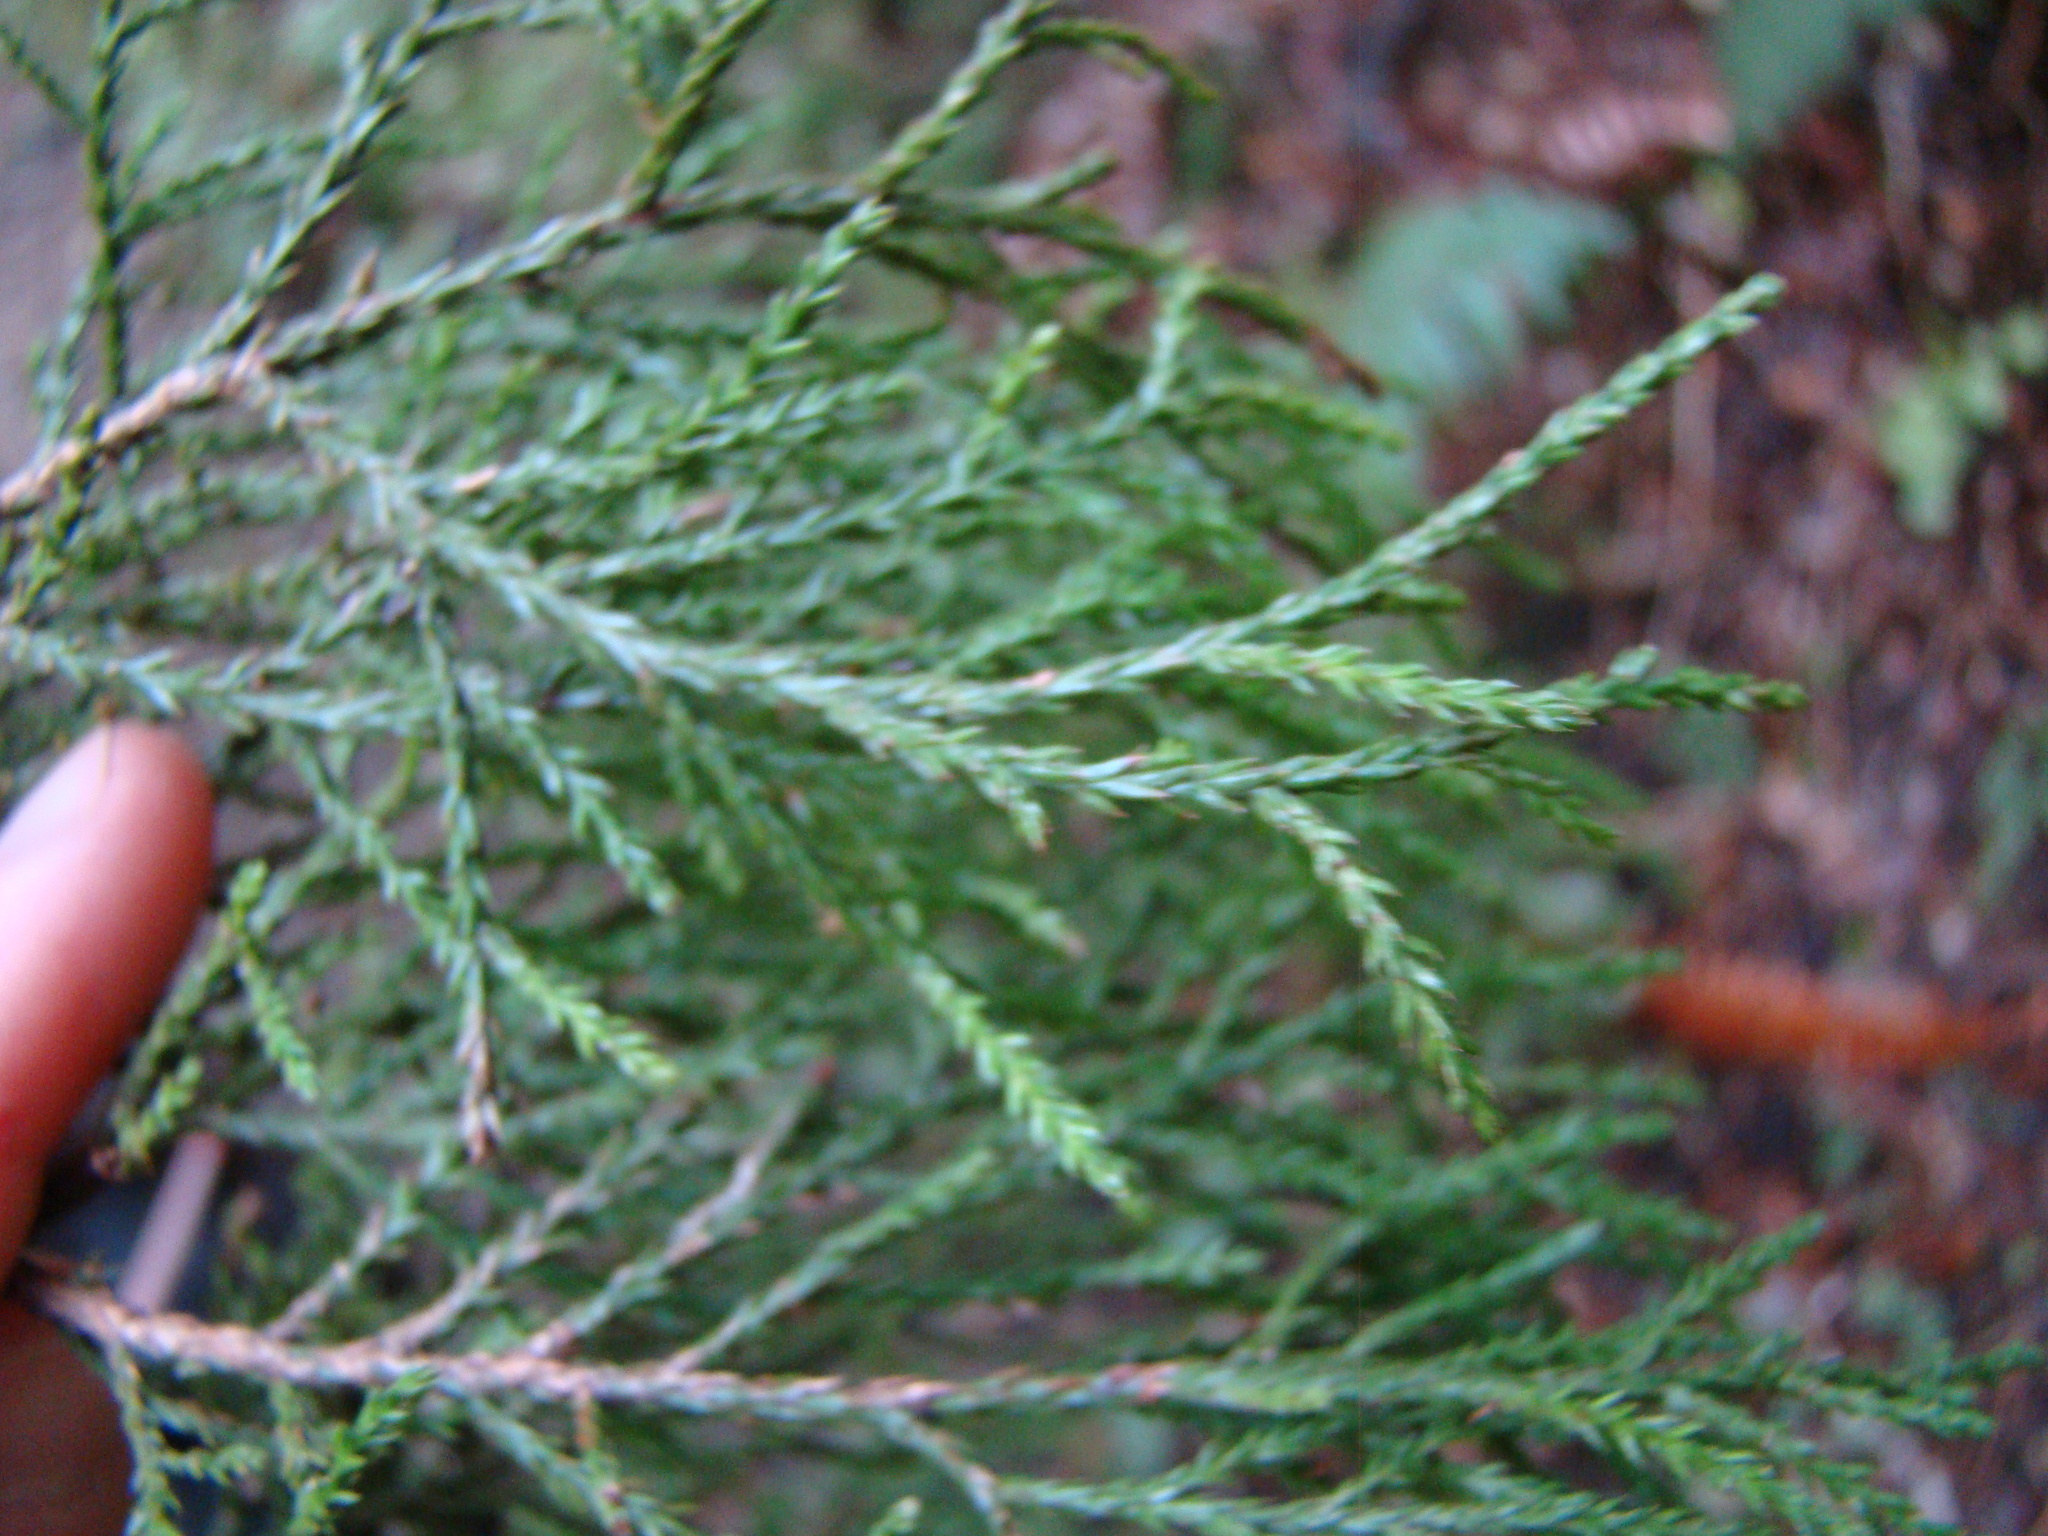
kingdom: Plantae
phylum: Tracheophyta
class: Pinopsida
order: Pinales
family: Podocarpaceae
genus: Dacrycarpus
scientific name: Dacrycarpus dacrydioides
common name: White pine
